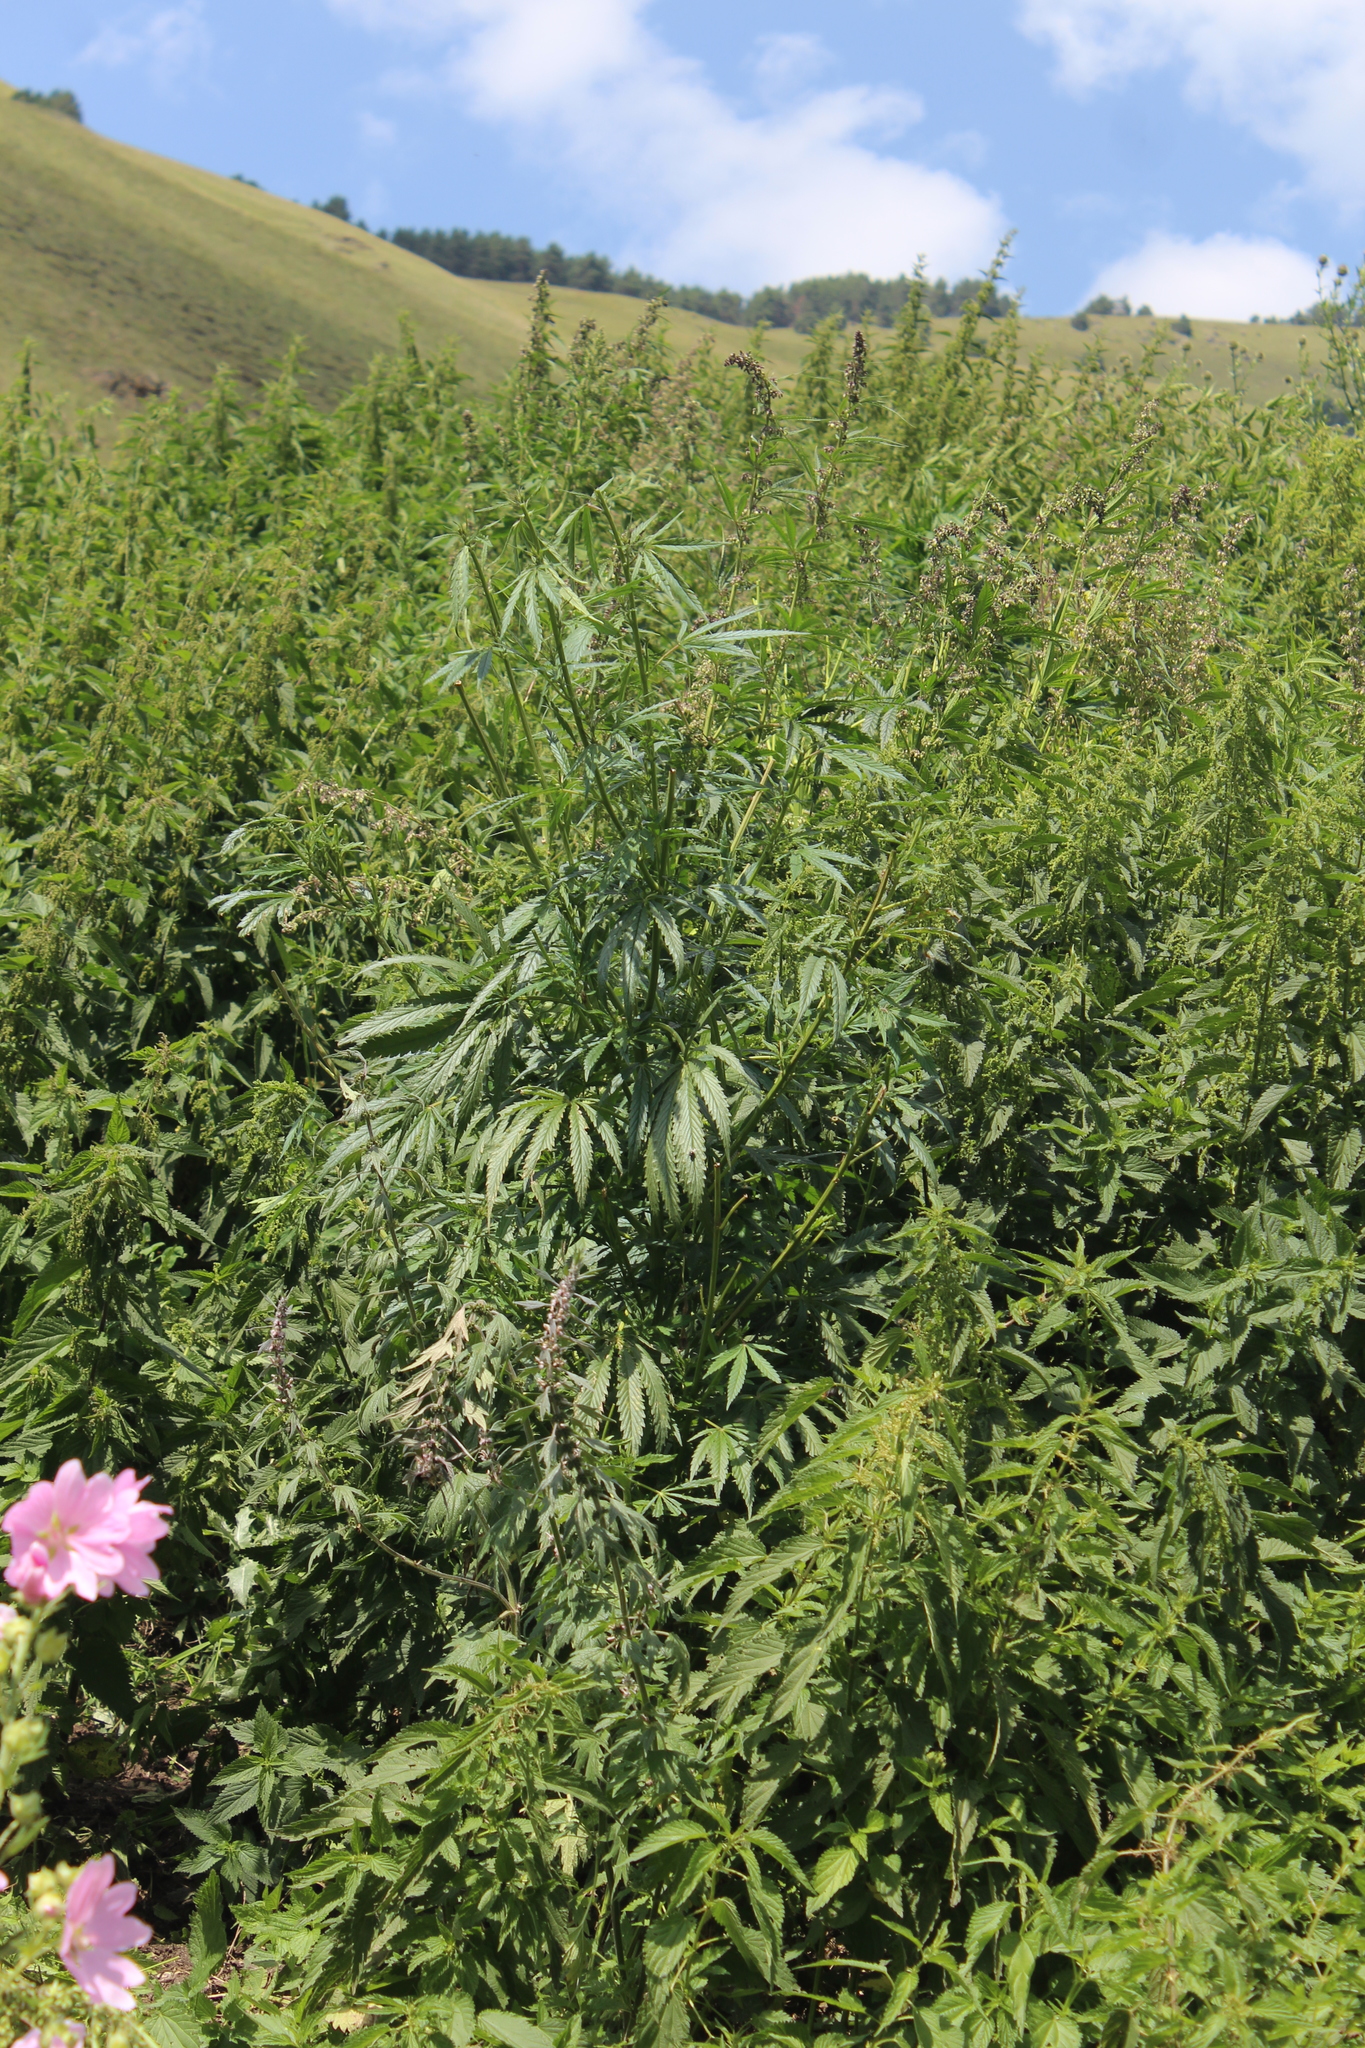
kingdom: Plantae
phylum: Tracheophyta
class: Magnoliopsida
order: Rosales
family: Cannabaceae
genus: Cannabis
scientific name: Cannabis sativa
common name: Hemp
